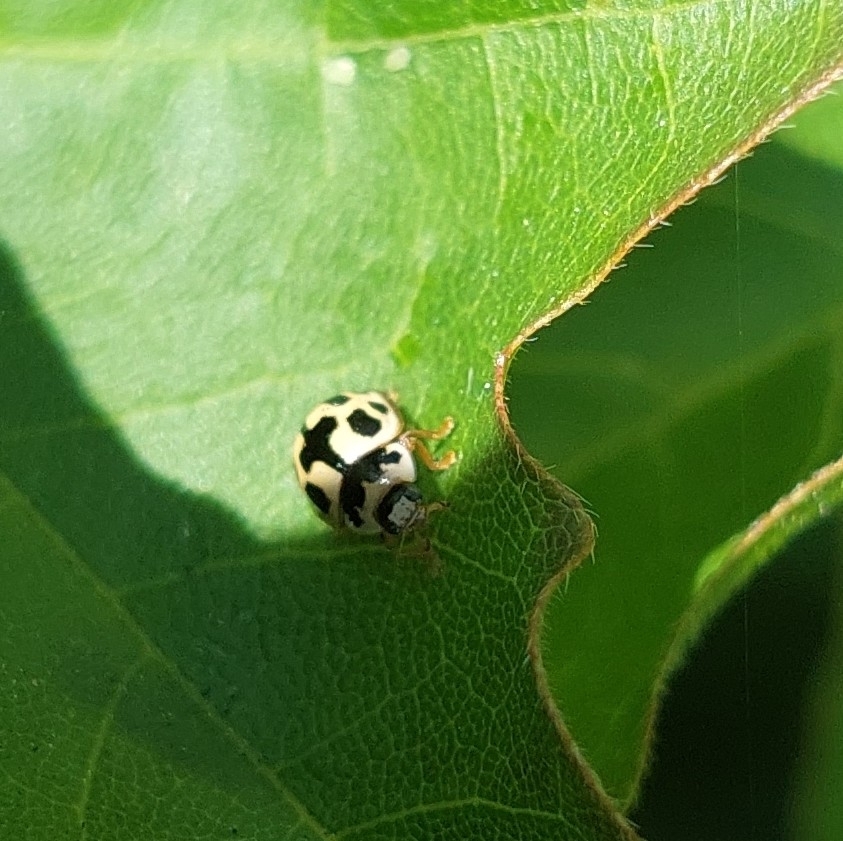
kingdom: Animalia
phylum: Arthropoda
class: Insecta
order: Coleoptera
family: Coccinellidae
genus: Propylaea
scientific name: Propylaea quatuordecimpunctata
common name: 14-spotted ladybird beetle
